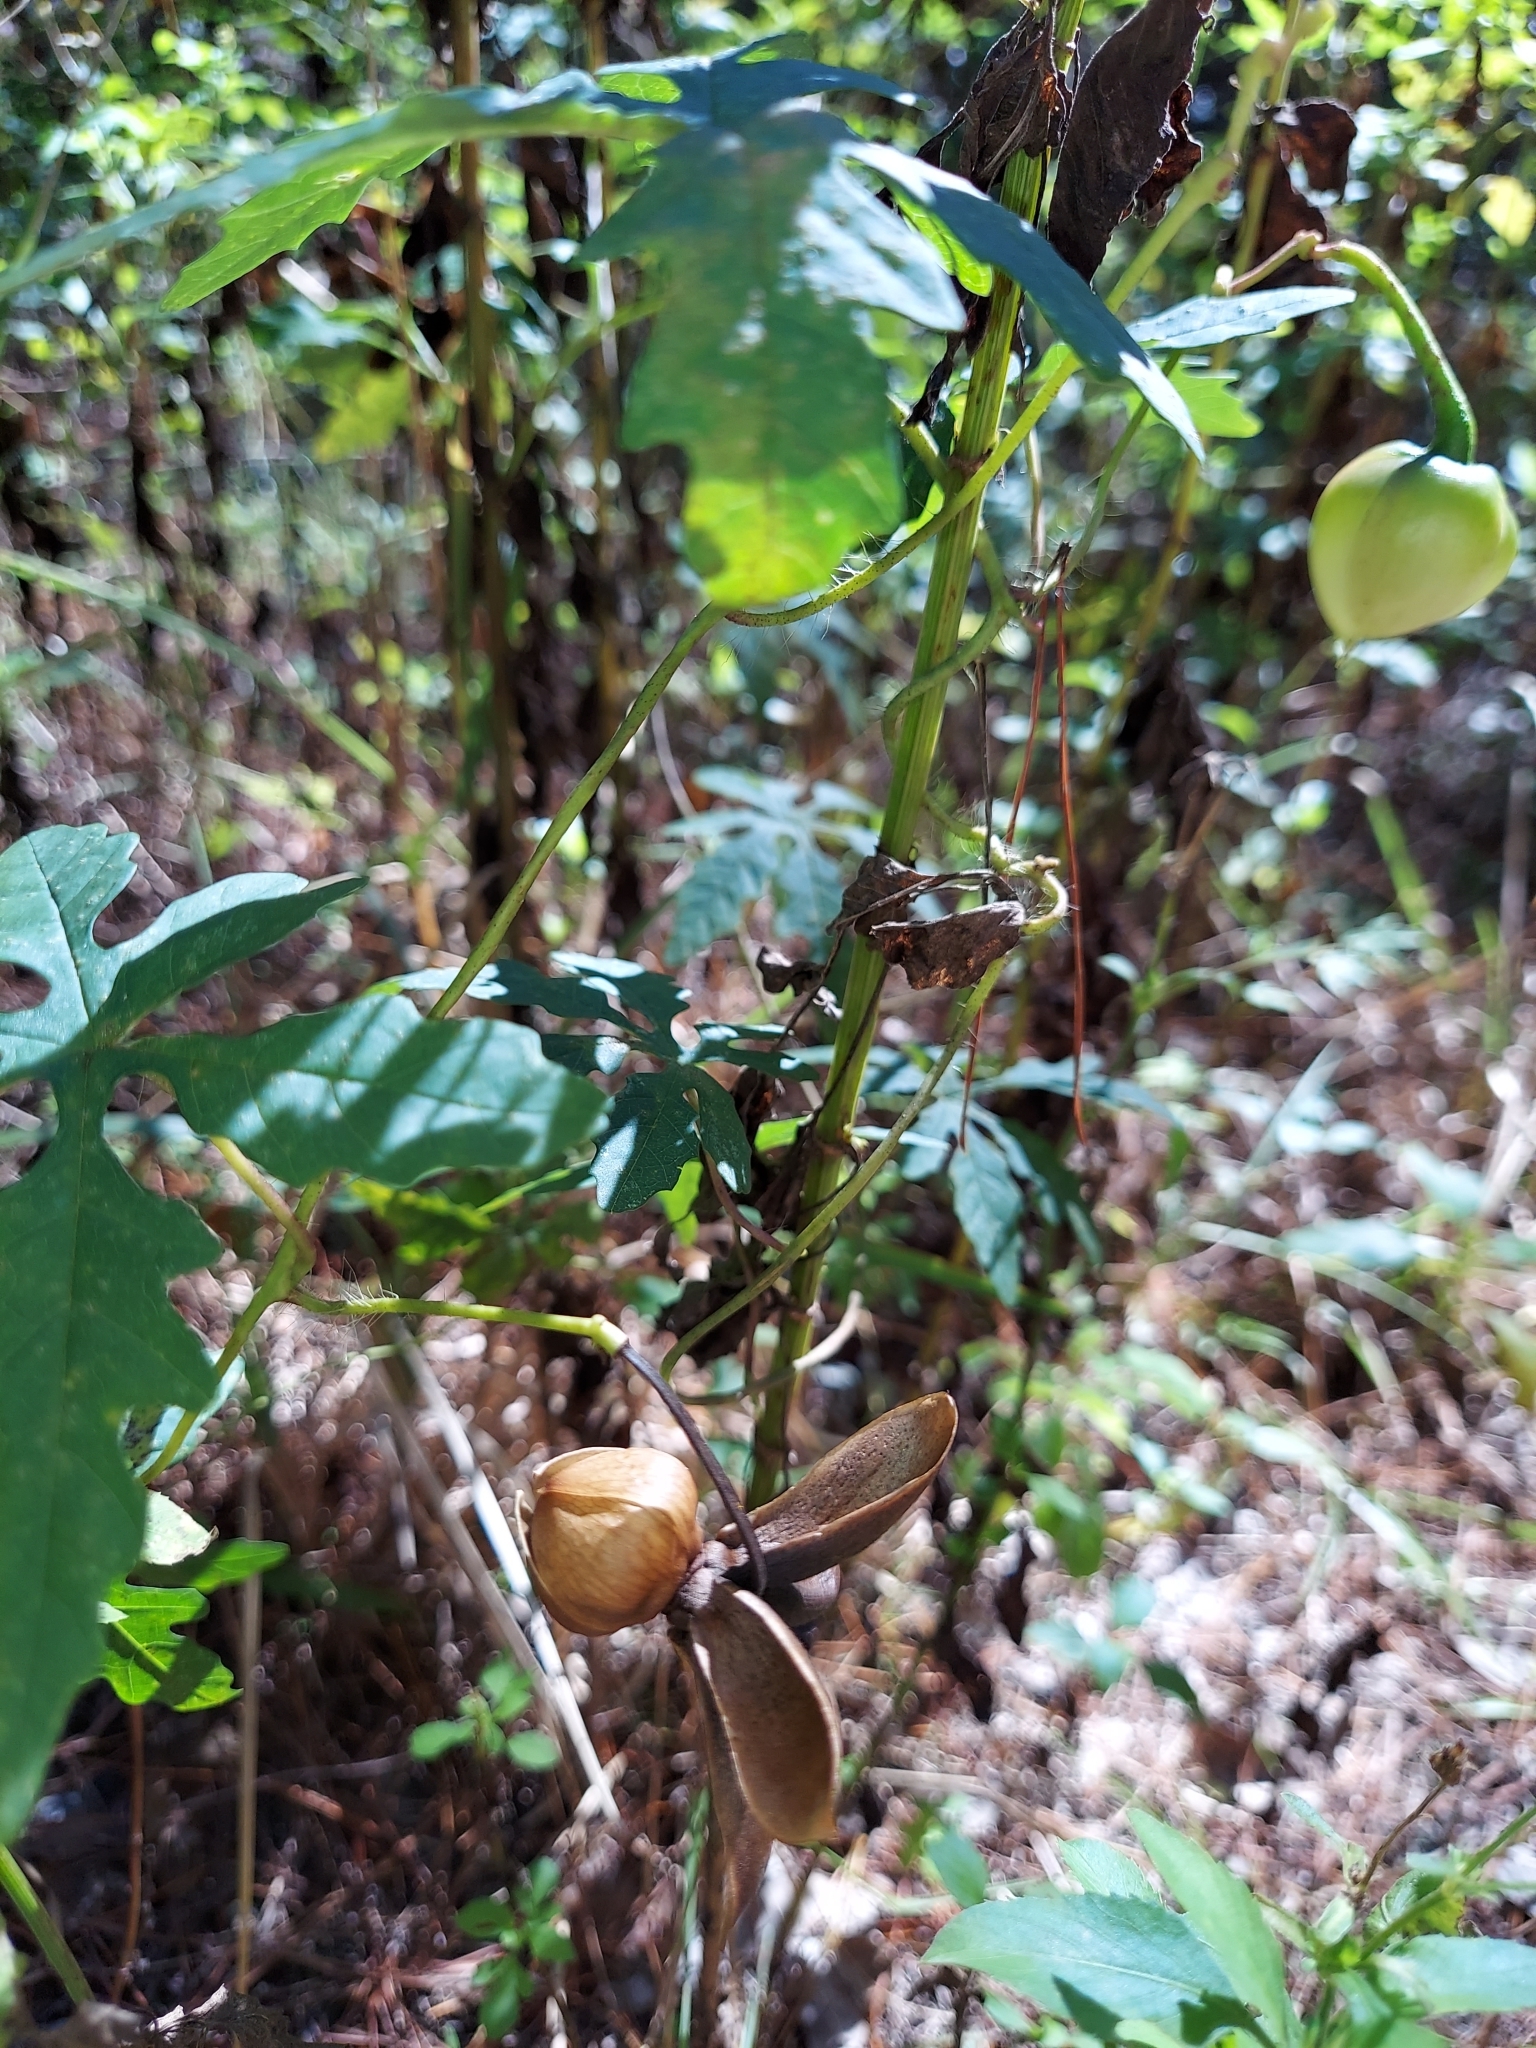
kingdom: Plantae
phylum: Tracheophyta
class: Magnoliopsida
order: Solanales
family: Convolvulaceae
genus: Distimake
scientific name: Distimake dissectus
